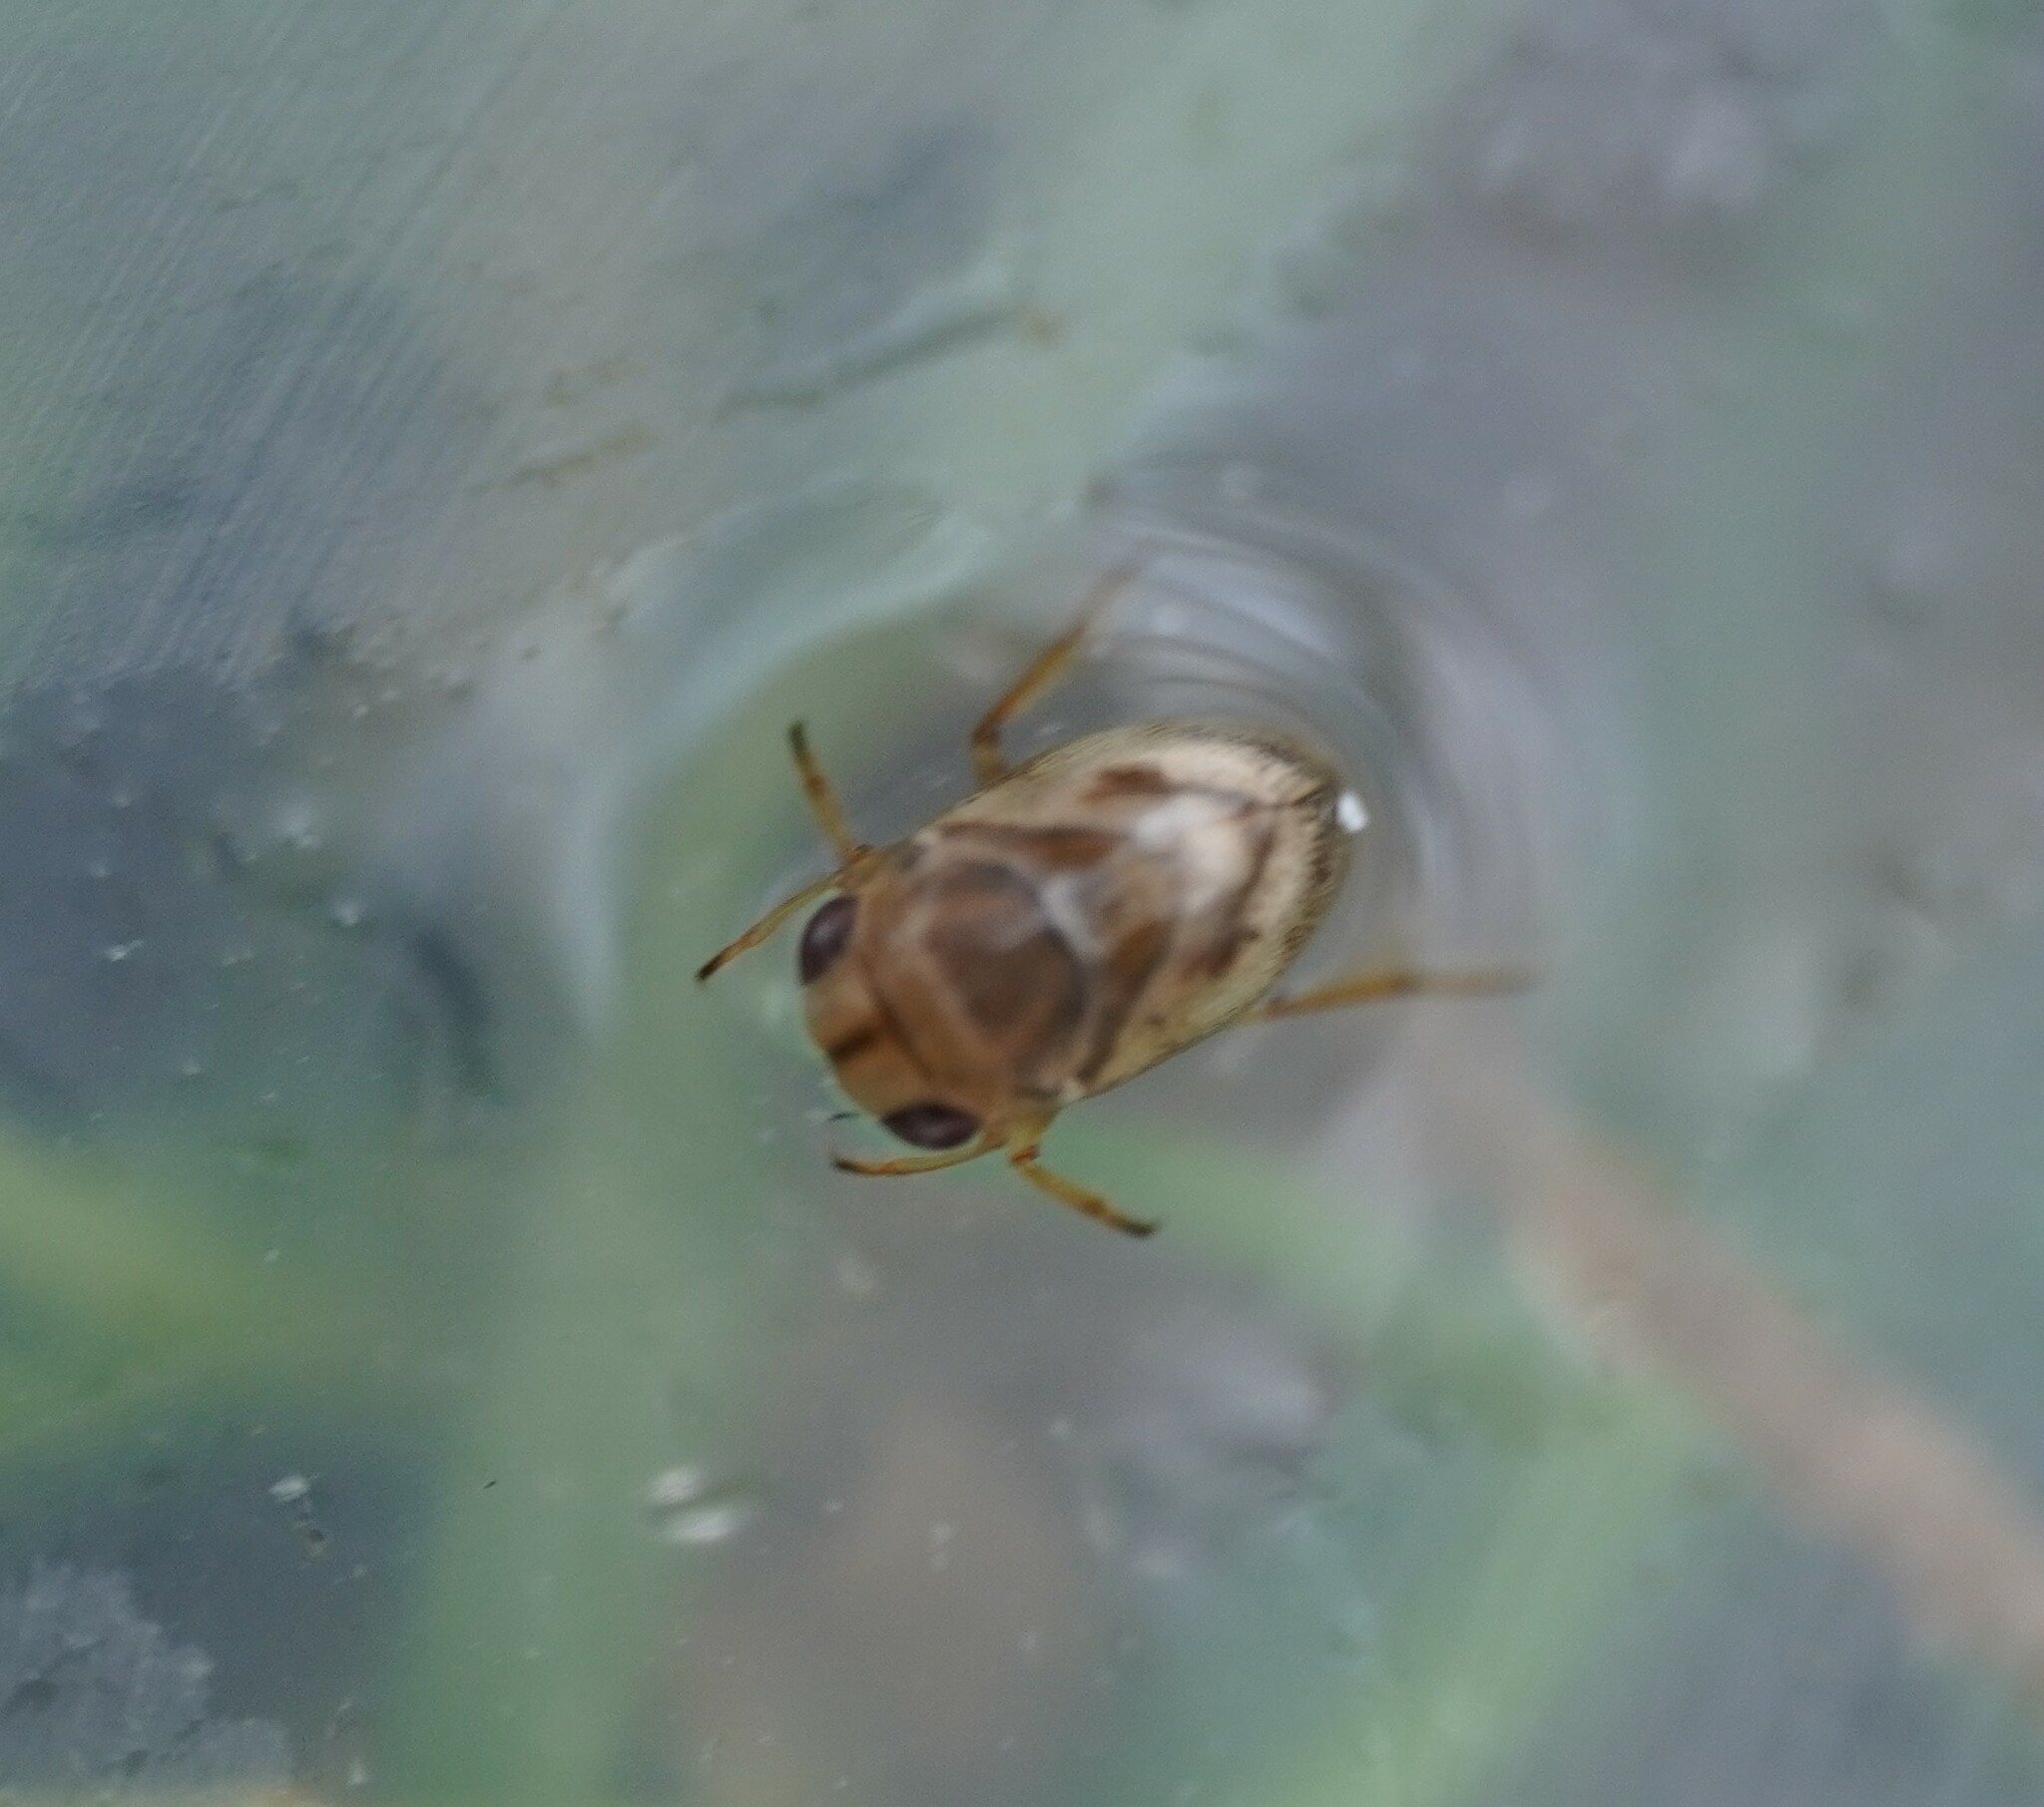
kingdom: Animalia
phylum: Arthropoda
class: Insecta
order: Hemiptera
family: Pleidae
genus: Plea
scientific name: Plea minutissima
